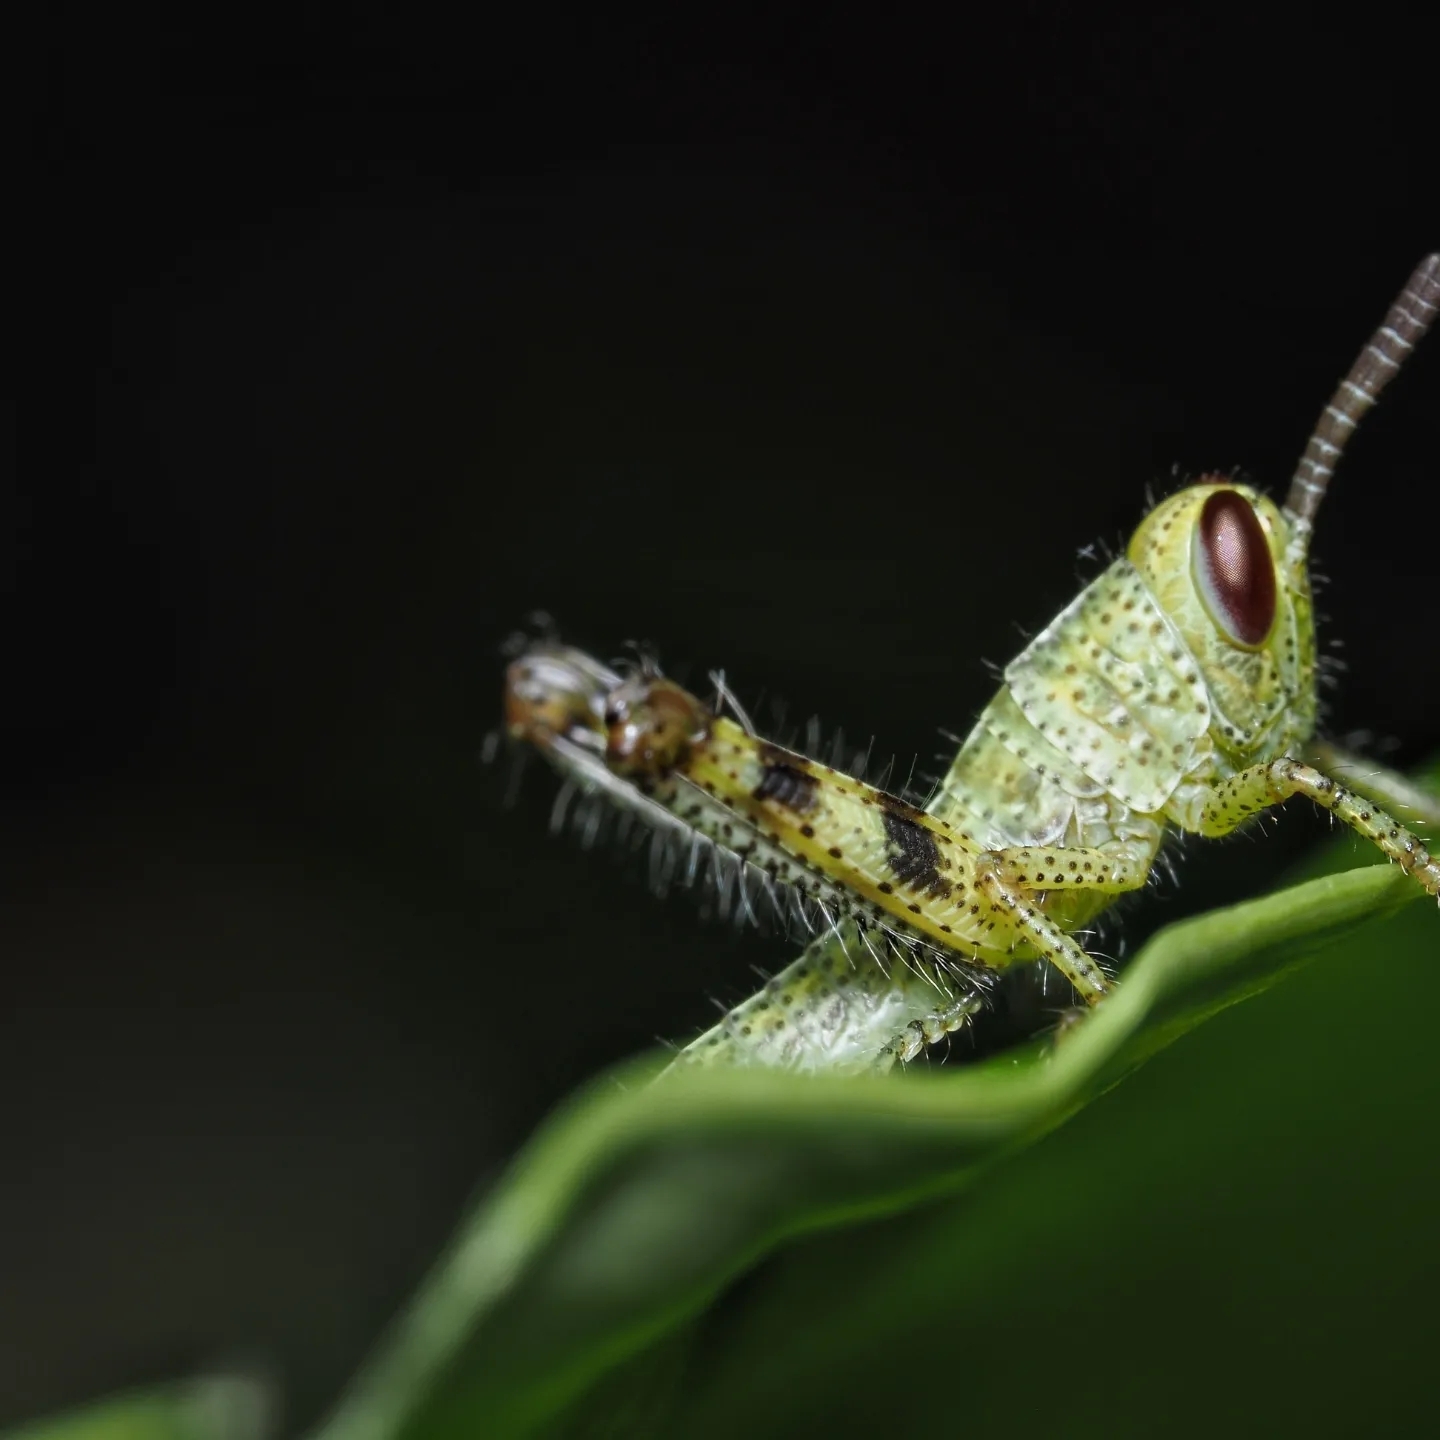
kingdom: Animalia
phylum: Arthropoda
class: Insecta
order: Orthoptera
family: Acrididae
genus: Valanga
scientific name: Valanga irregularis
